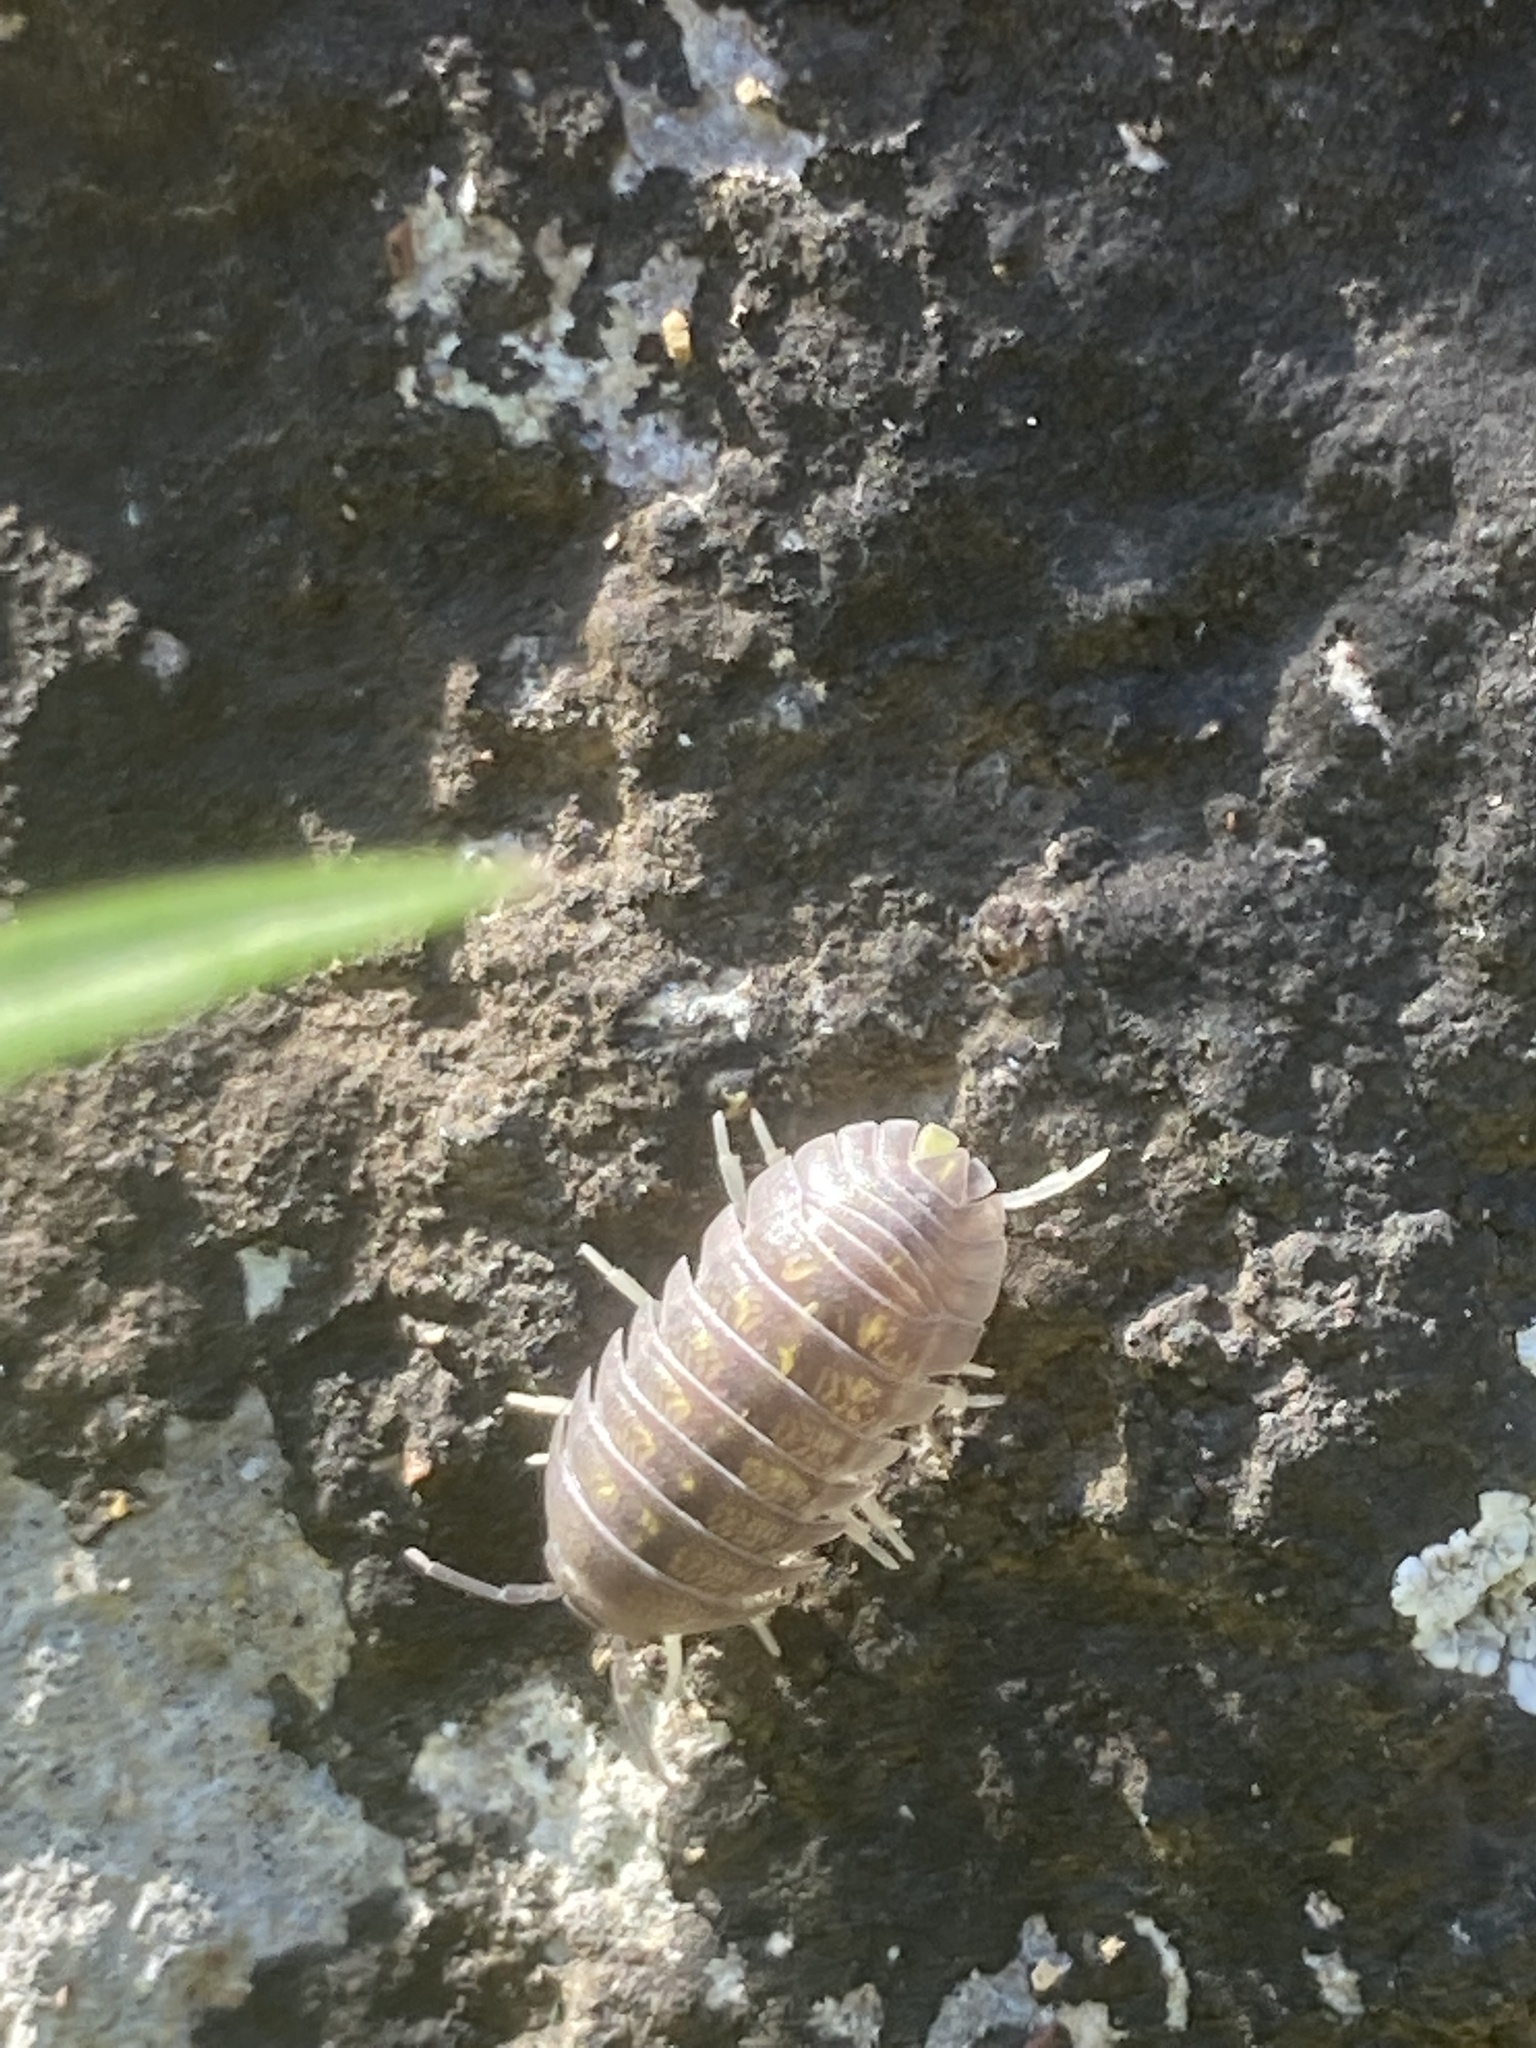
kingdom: Animalia
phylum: Arthropoda
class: Malacostraca
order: Isopoda
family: Armadillidiidae
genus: Armadillidium
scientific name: Armadillidium granulatum
